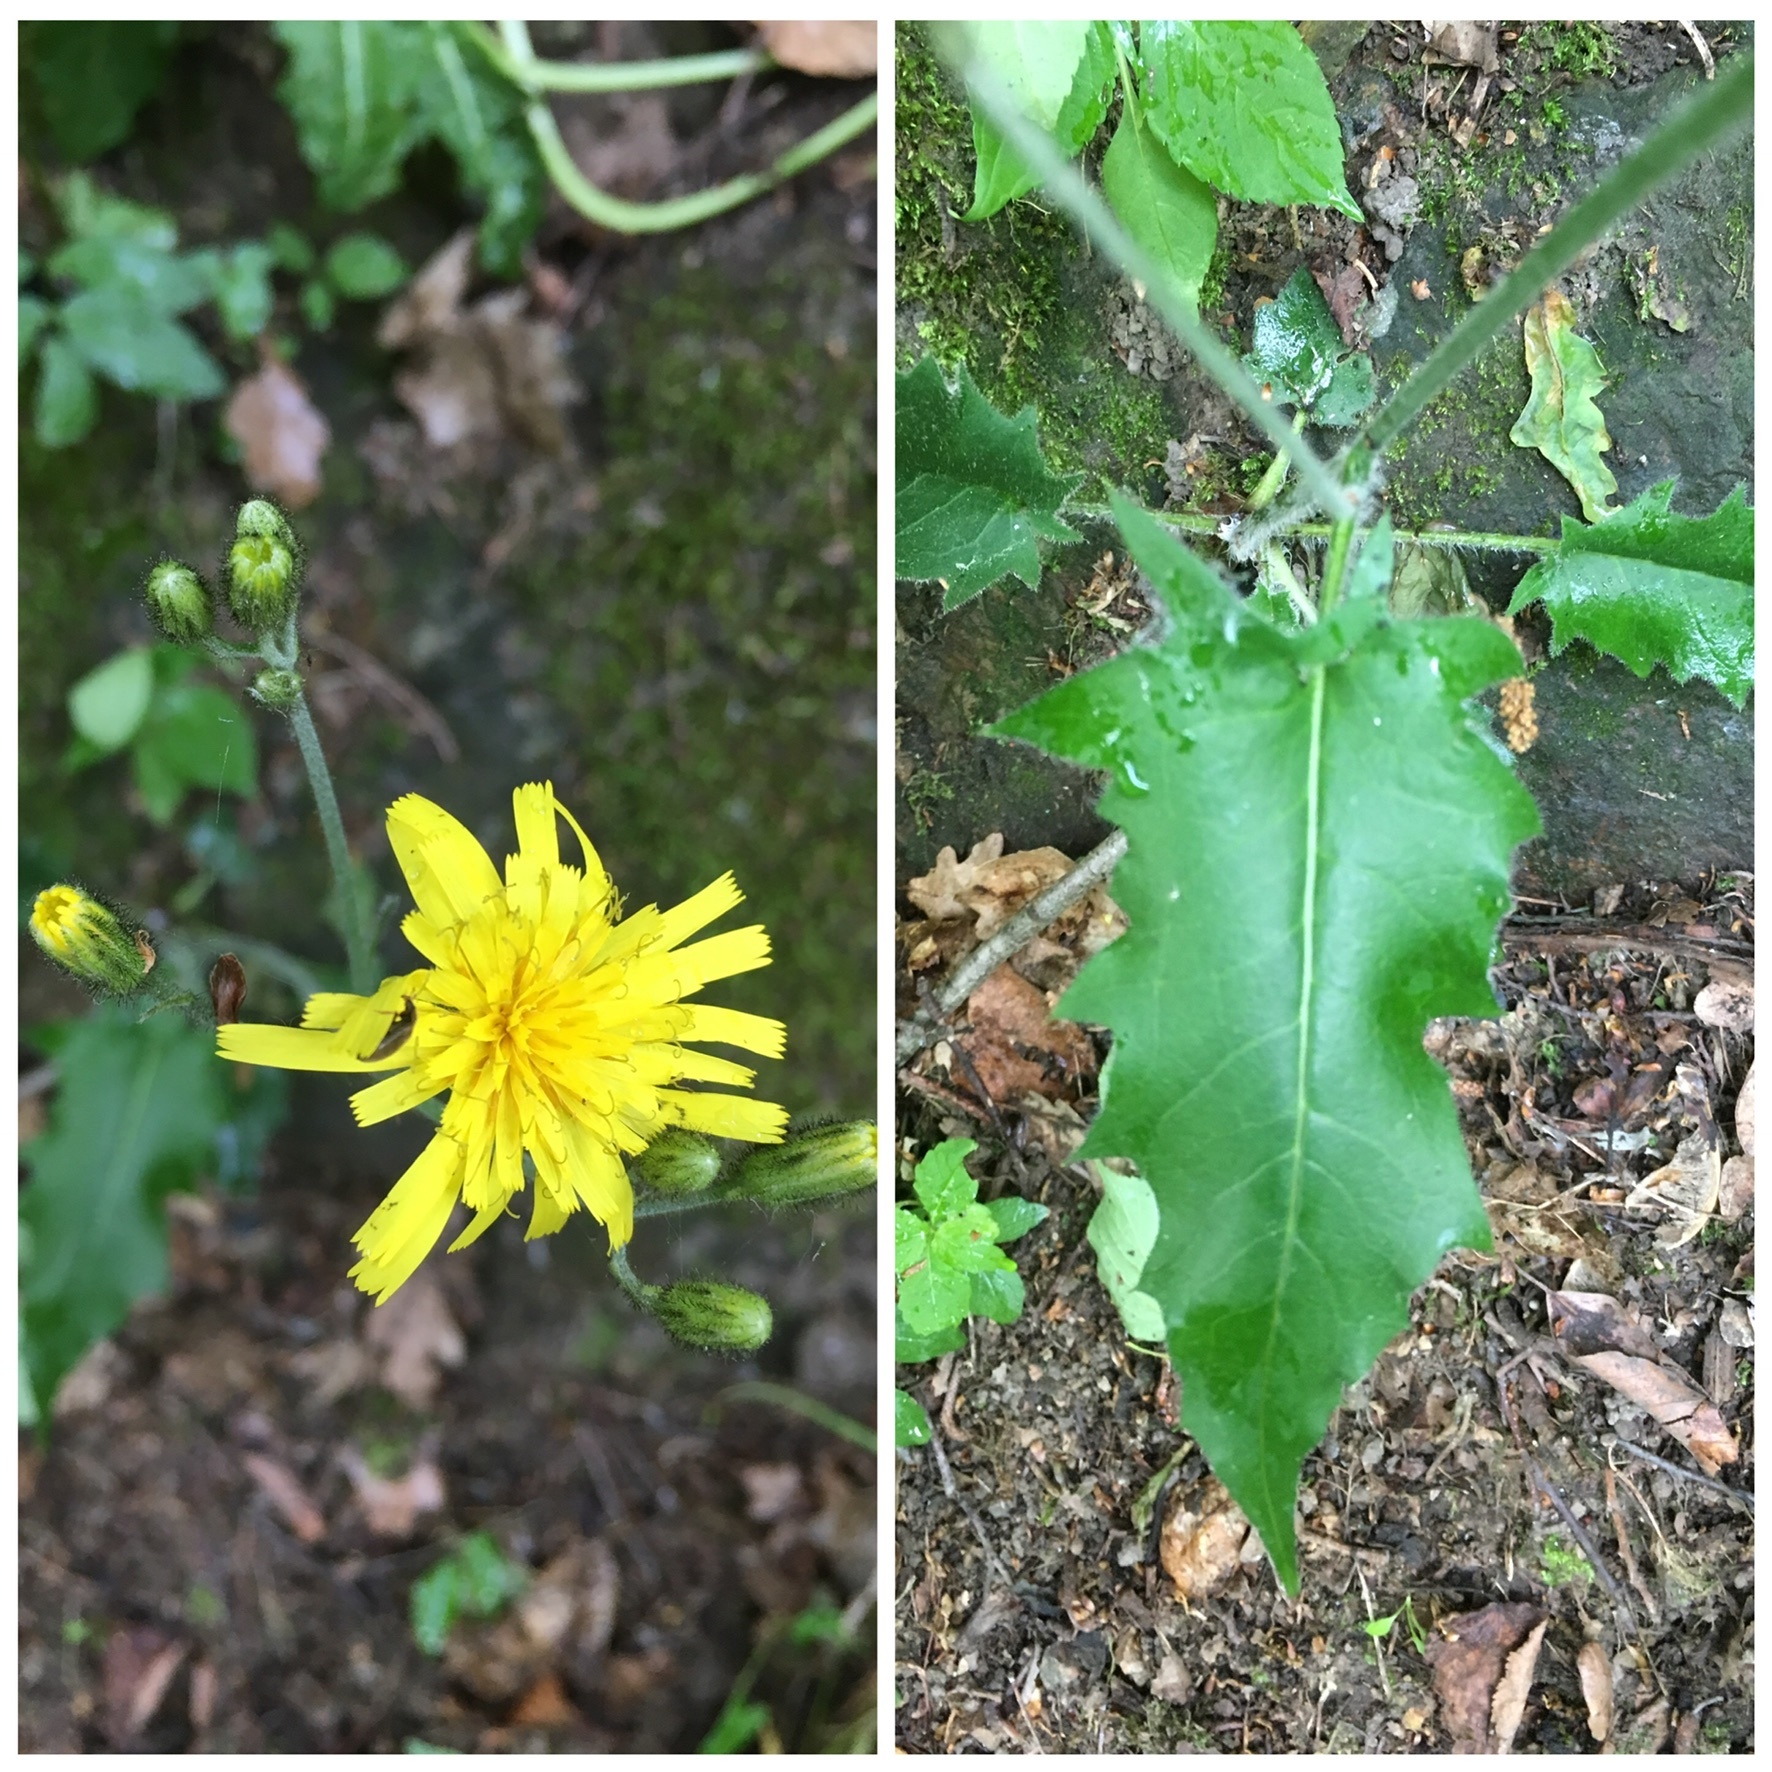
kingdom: Plantae
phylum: Tracheophyta
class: Magnoliopsida
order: Asterales
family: Asteraceae
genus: Hieracium
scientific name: Hieracium murorum
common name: Wall hawkweed
